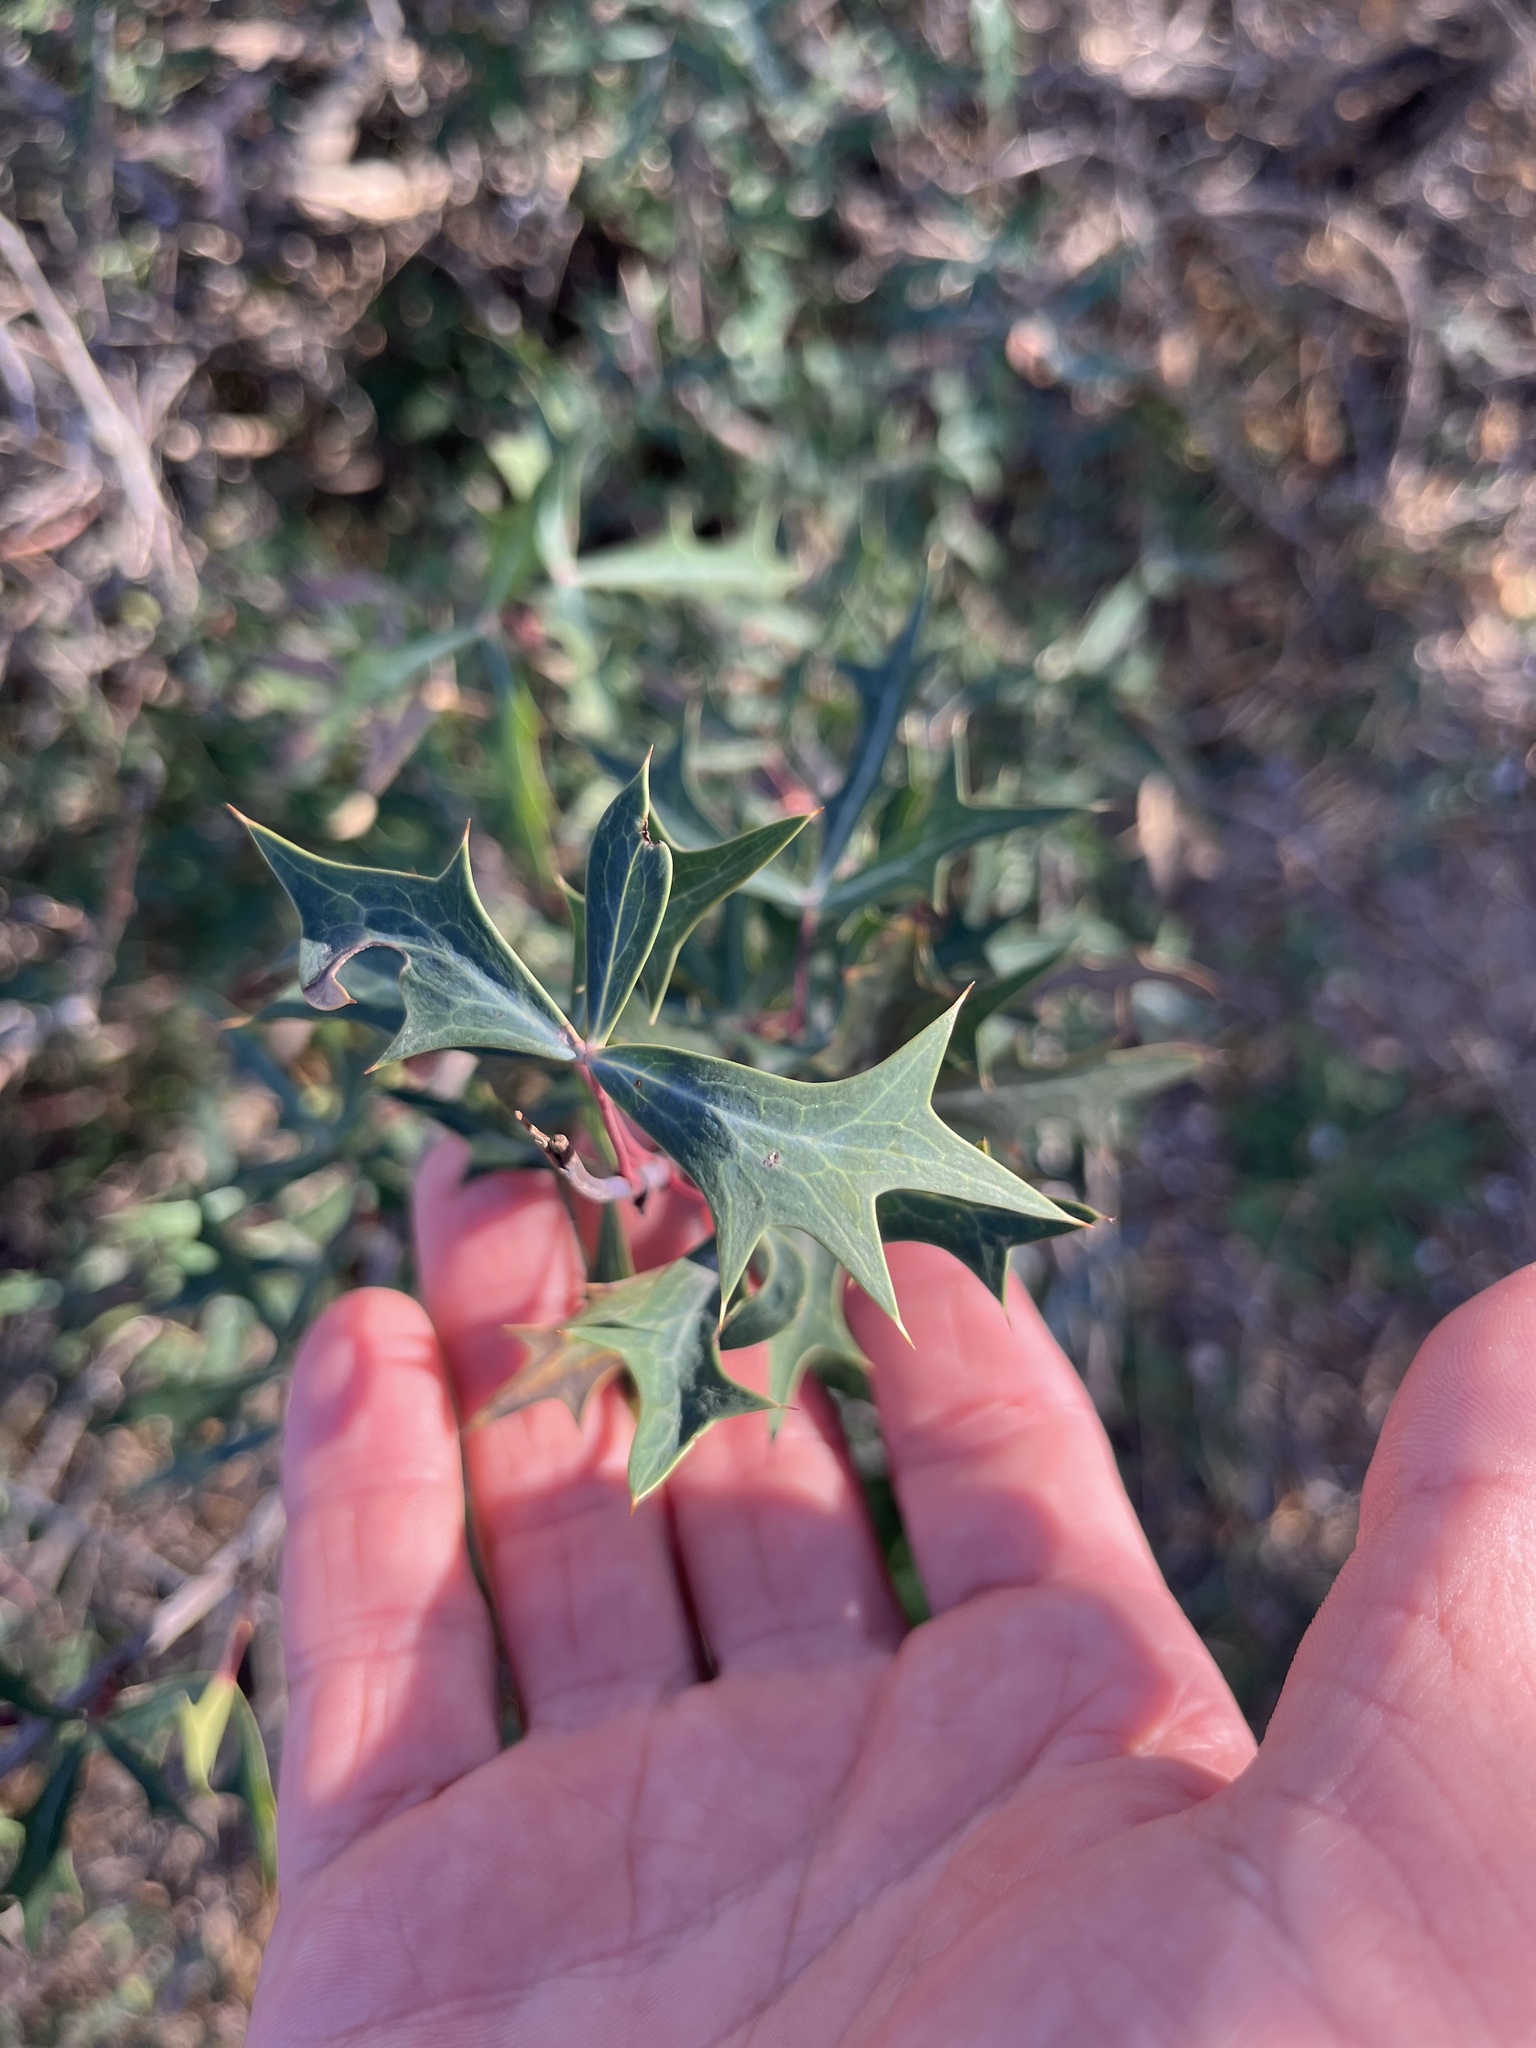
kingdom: Plantae
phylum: Tracheophyta
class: Magnoliopsida
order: Ranunculales
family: Berberidaceae
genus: Alloberberis
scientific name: Alloberberis trifoliolata
